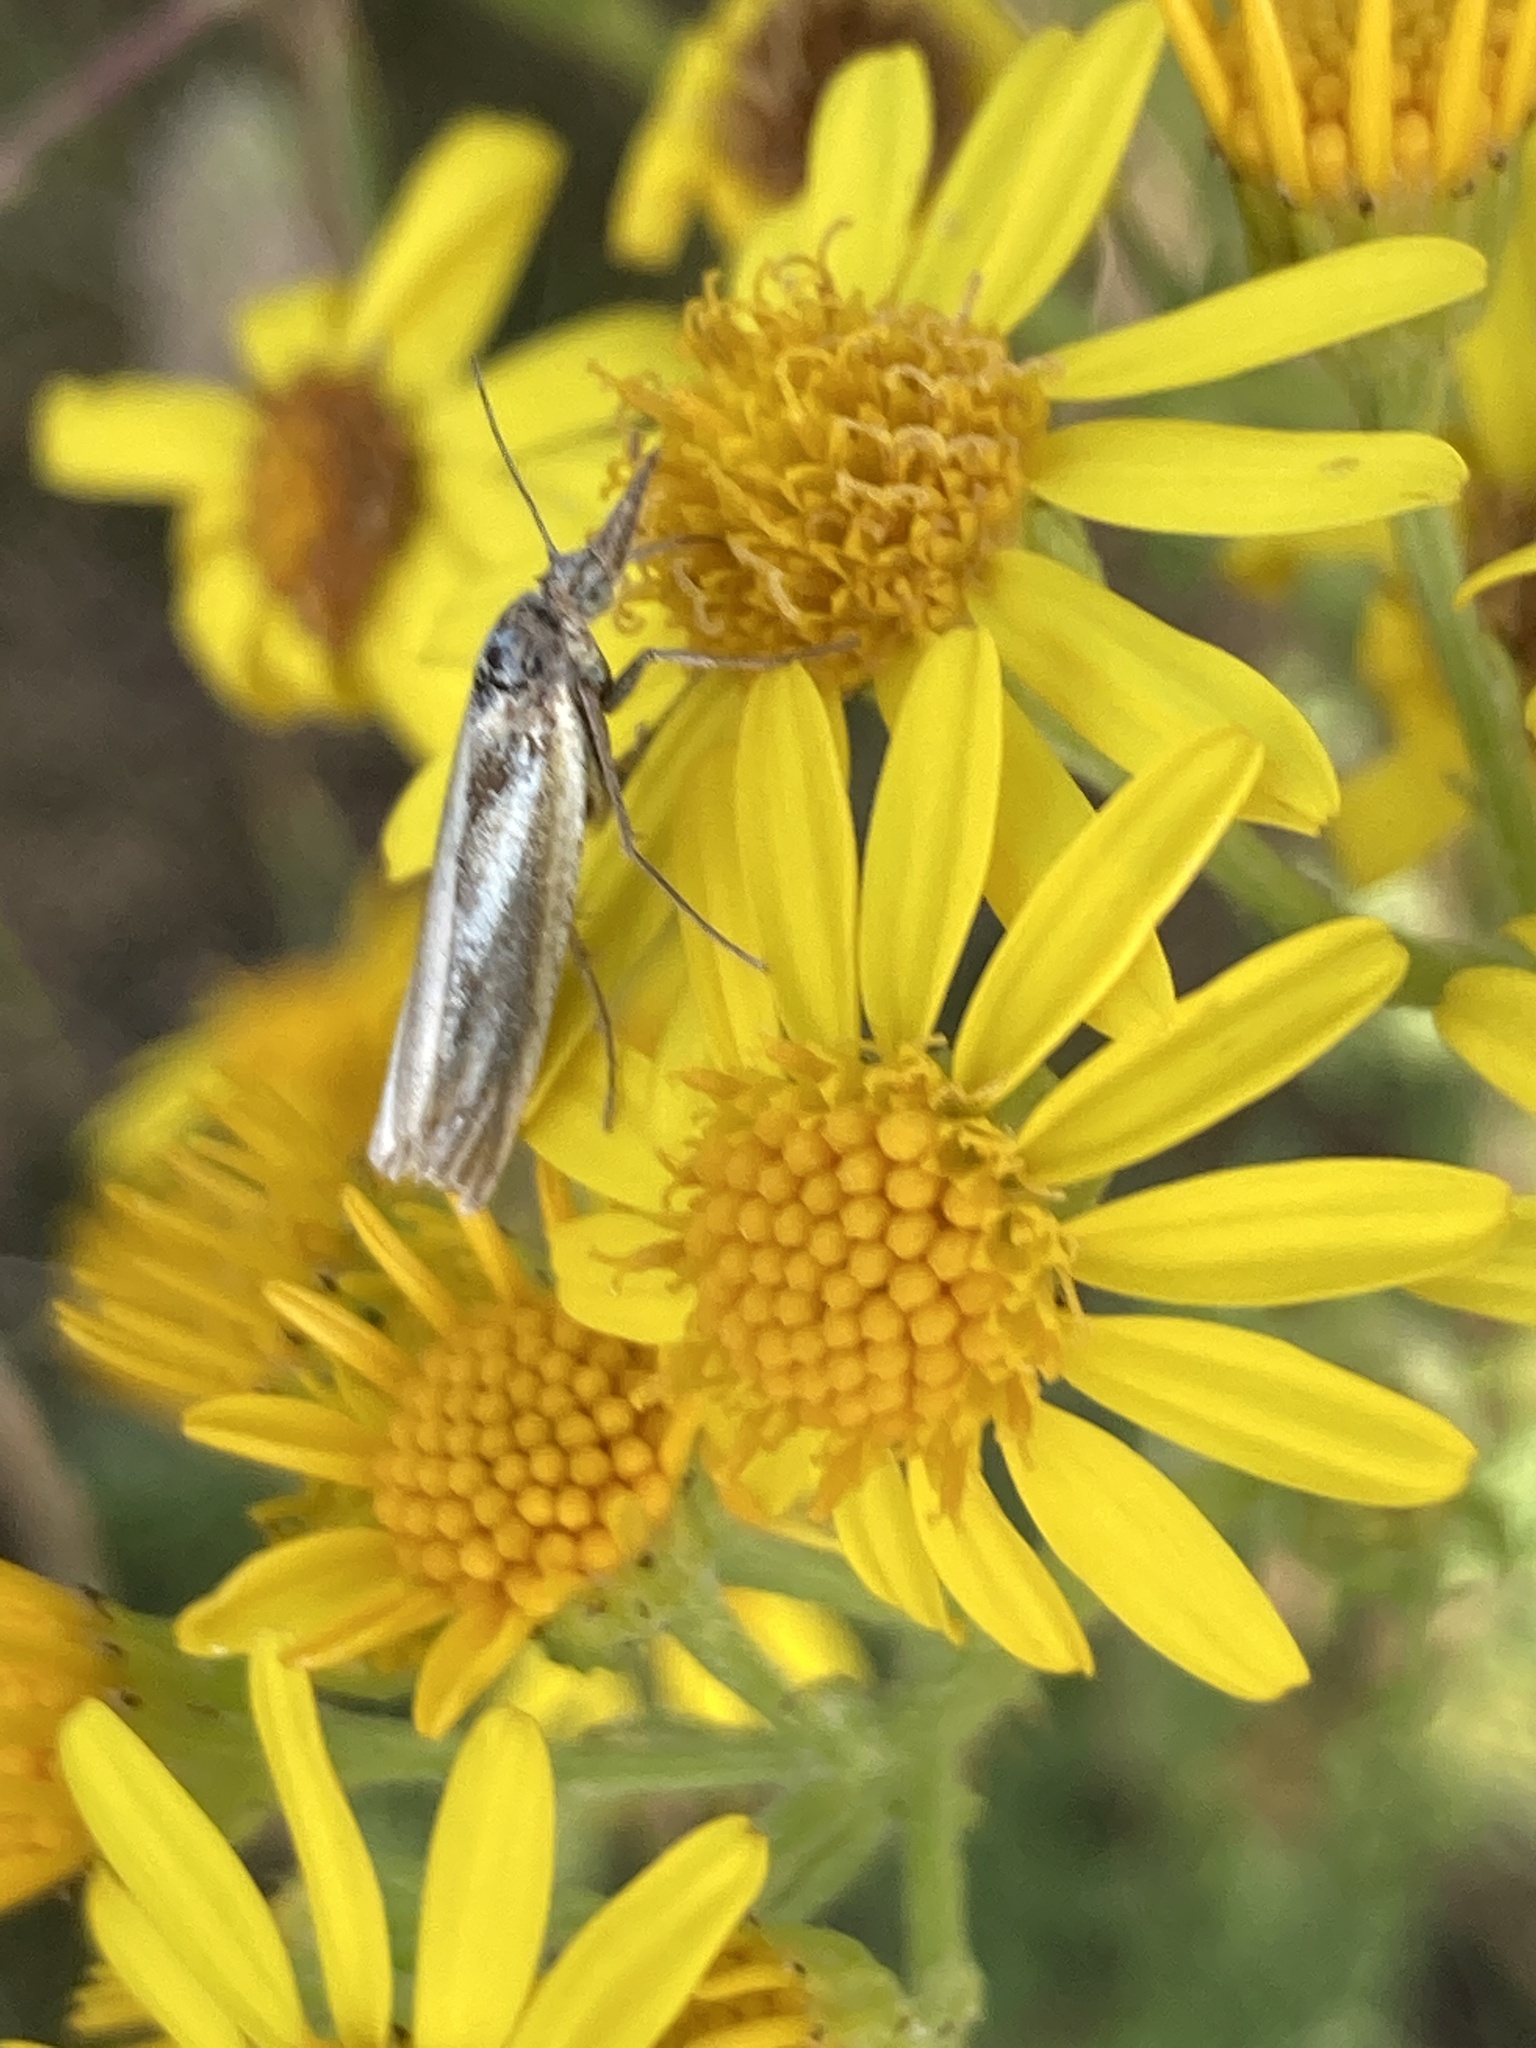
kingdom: Animalia
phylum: Arthropoda
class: Insecta
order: Lepidoptera
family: Crambidae
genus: Crambus
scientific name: Crambus perlellus
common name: Yellow satin veneer
